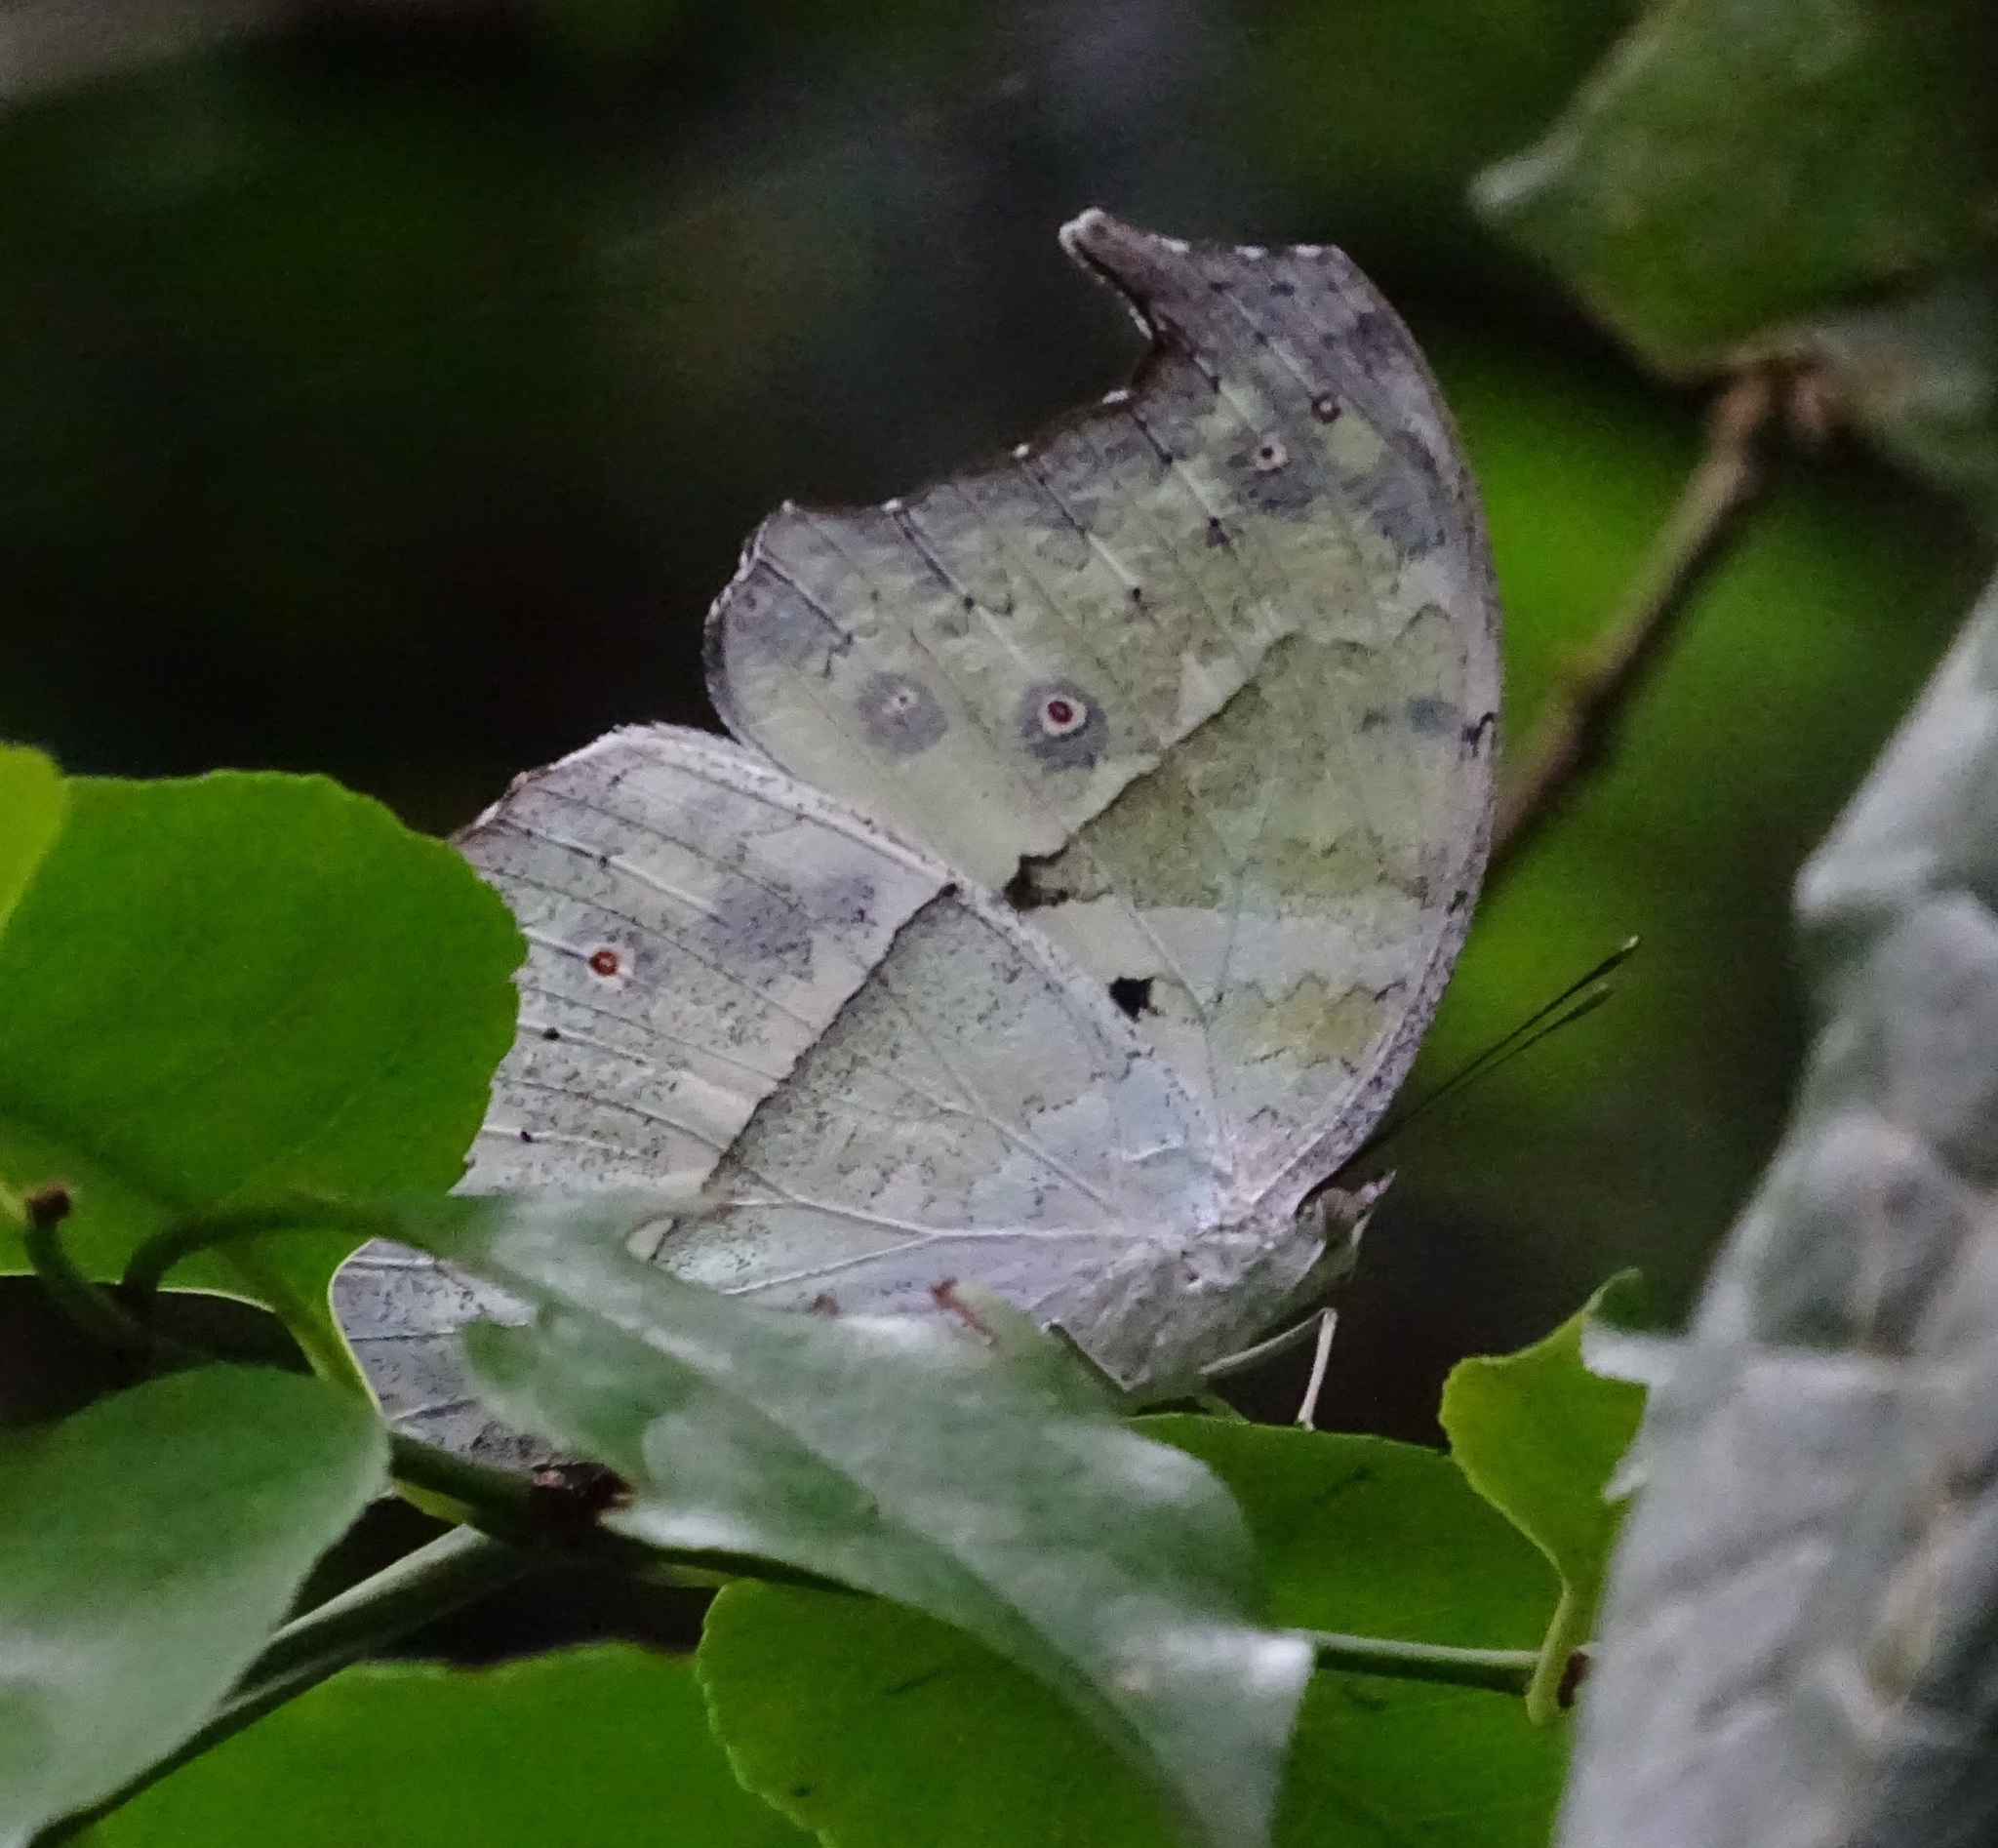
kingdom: Animalia
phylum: Arthropoda
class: Insecta
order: Lepidoptera
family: Nymphalidae
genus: Salamis
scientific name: Salamis Protogoniomorpha parhassus
